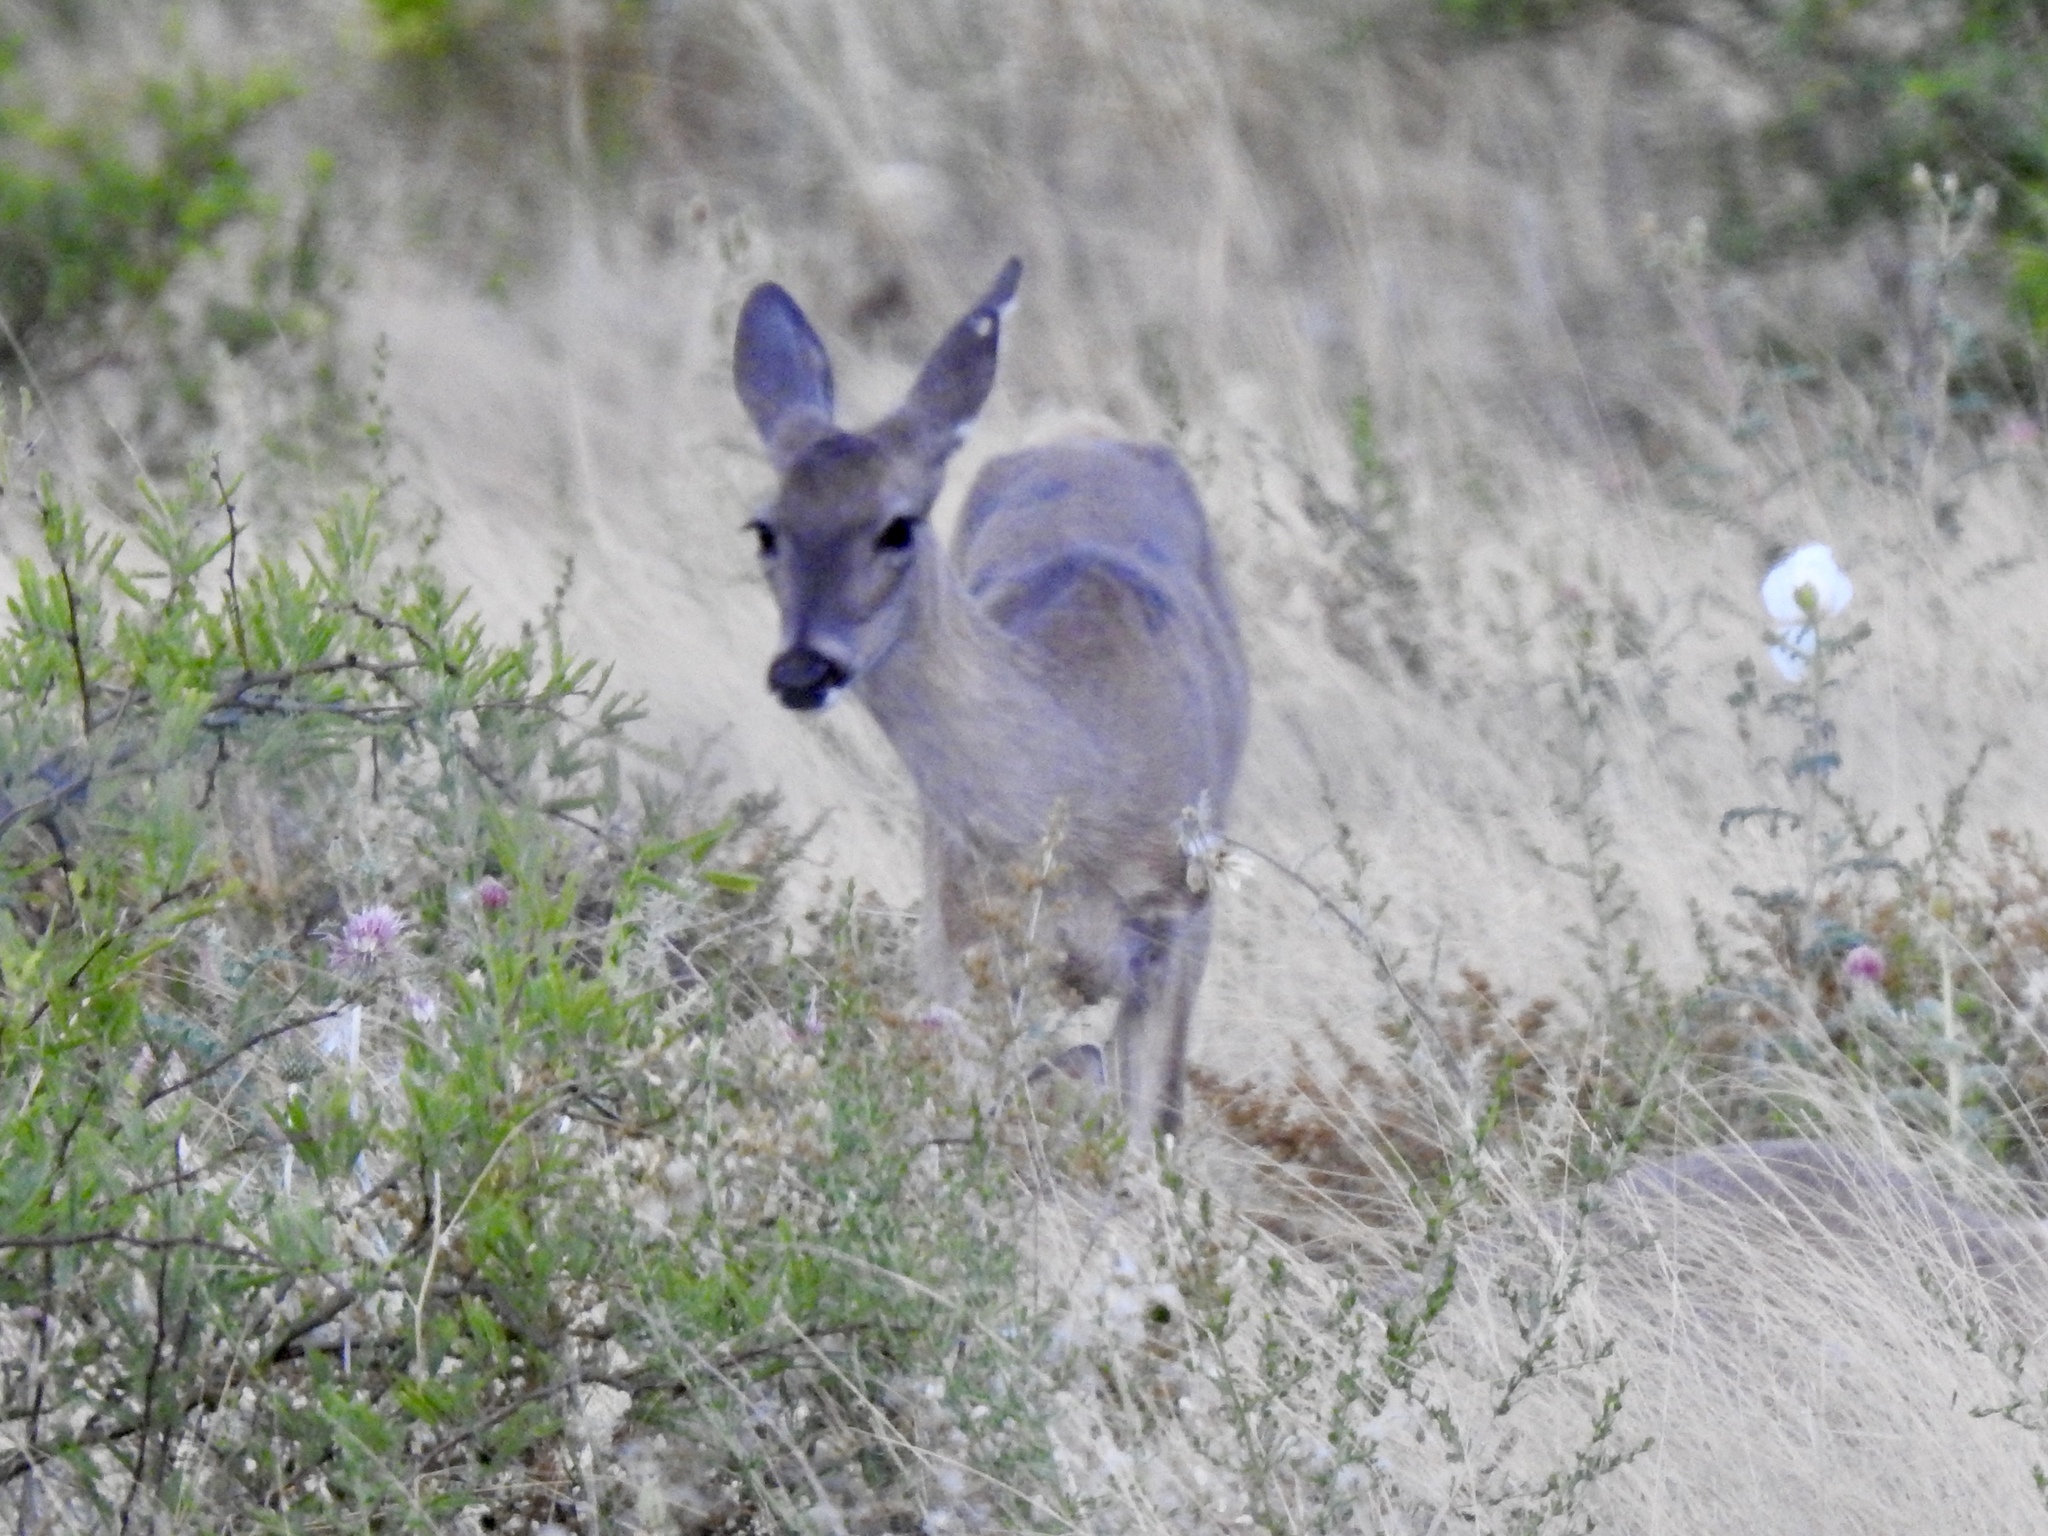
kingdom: Animalia
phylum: Chordata
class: Mammalia
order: Artiodactyla
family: Cervidae
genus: Odocoileus
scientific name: Odocoileus virginianus
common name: White-tailed deer
